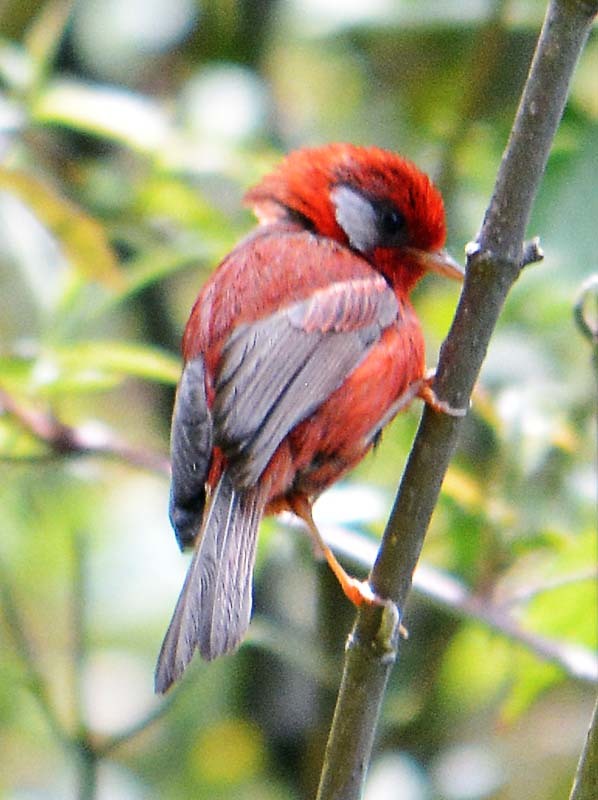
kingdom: Animalia
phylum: Chordata
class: Aves
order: Passeriformes
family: Parulidae
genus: Cardellina
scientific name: Cardellina rubra
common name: Red warbler
